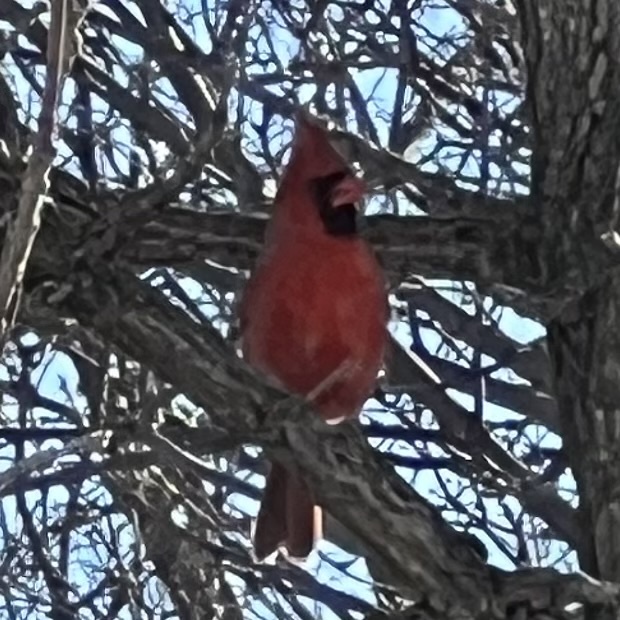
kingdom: Animalia
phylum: Chordata
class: Aves
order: Passeriformes
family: Cardinalidae
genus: Cardinalis
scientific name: Cardinalis cardinalis
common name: Northern cardinal
